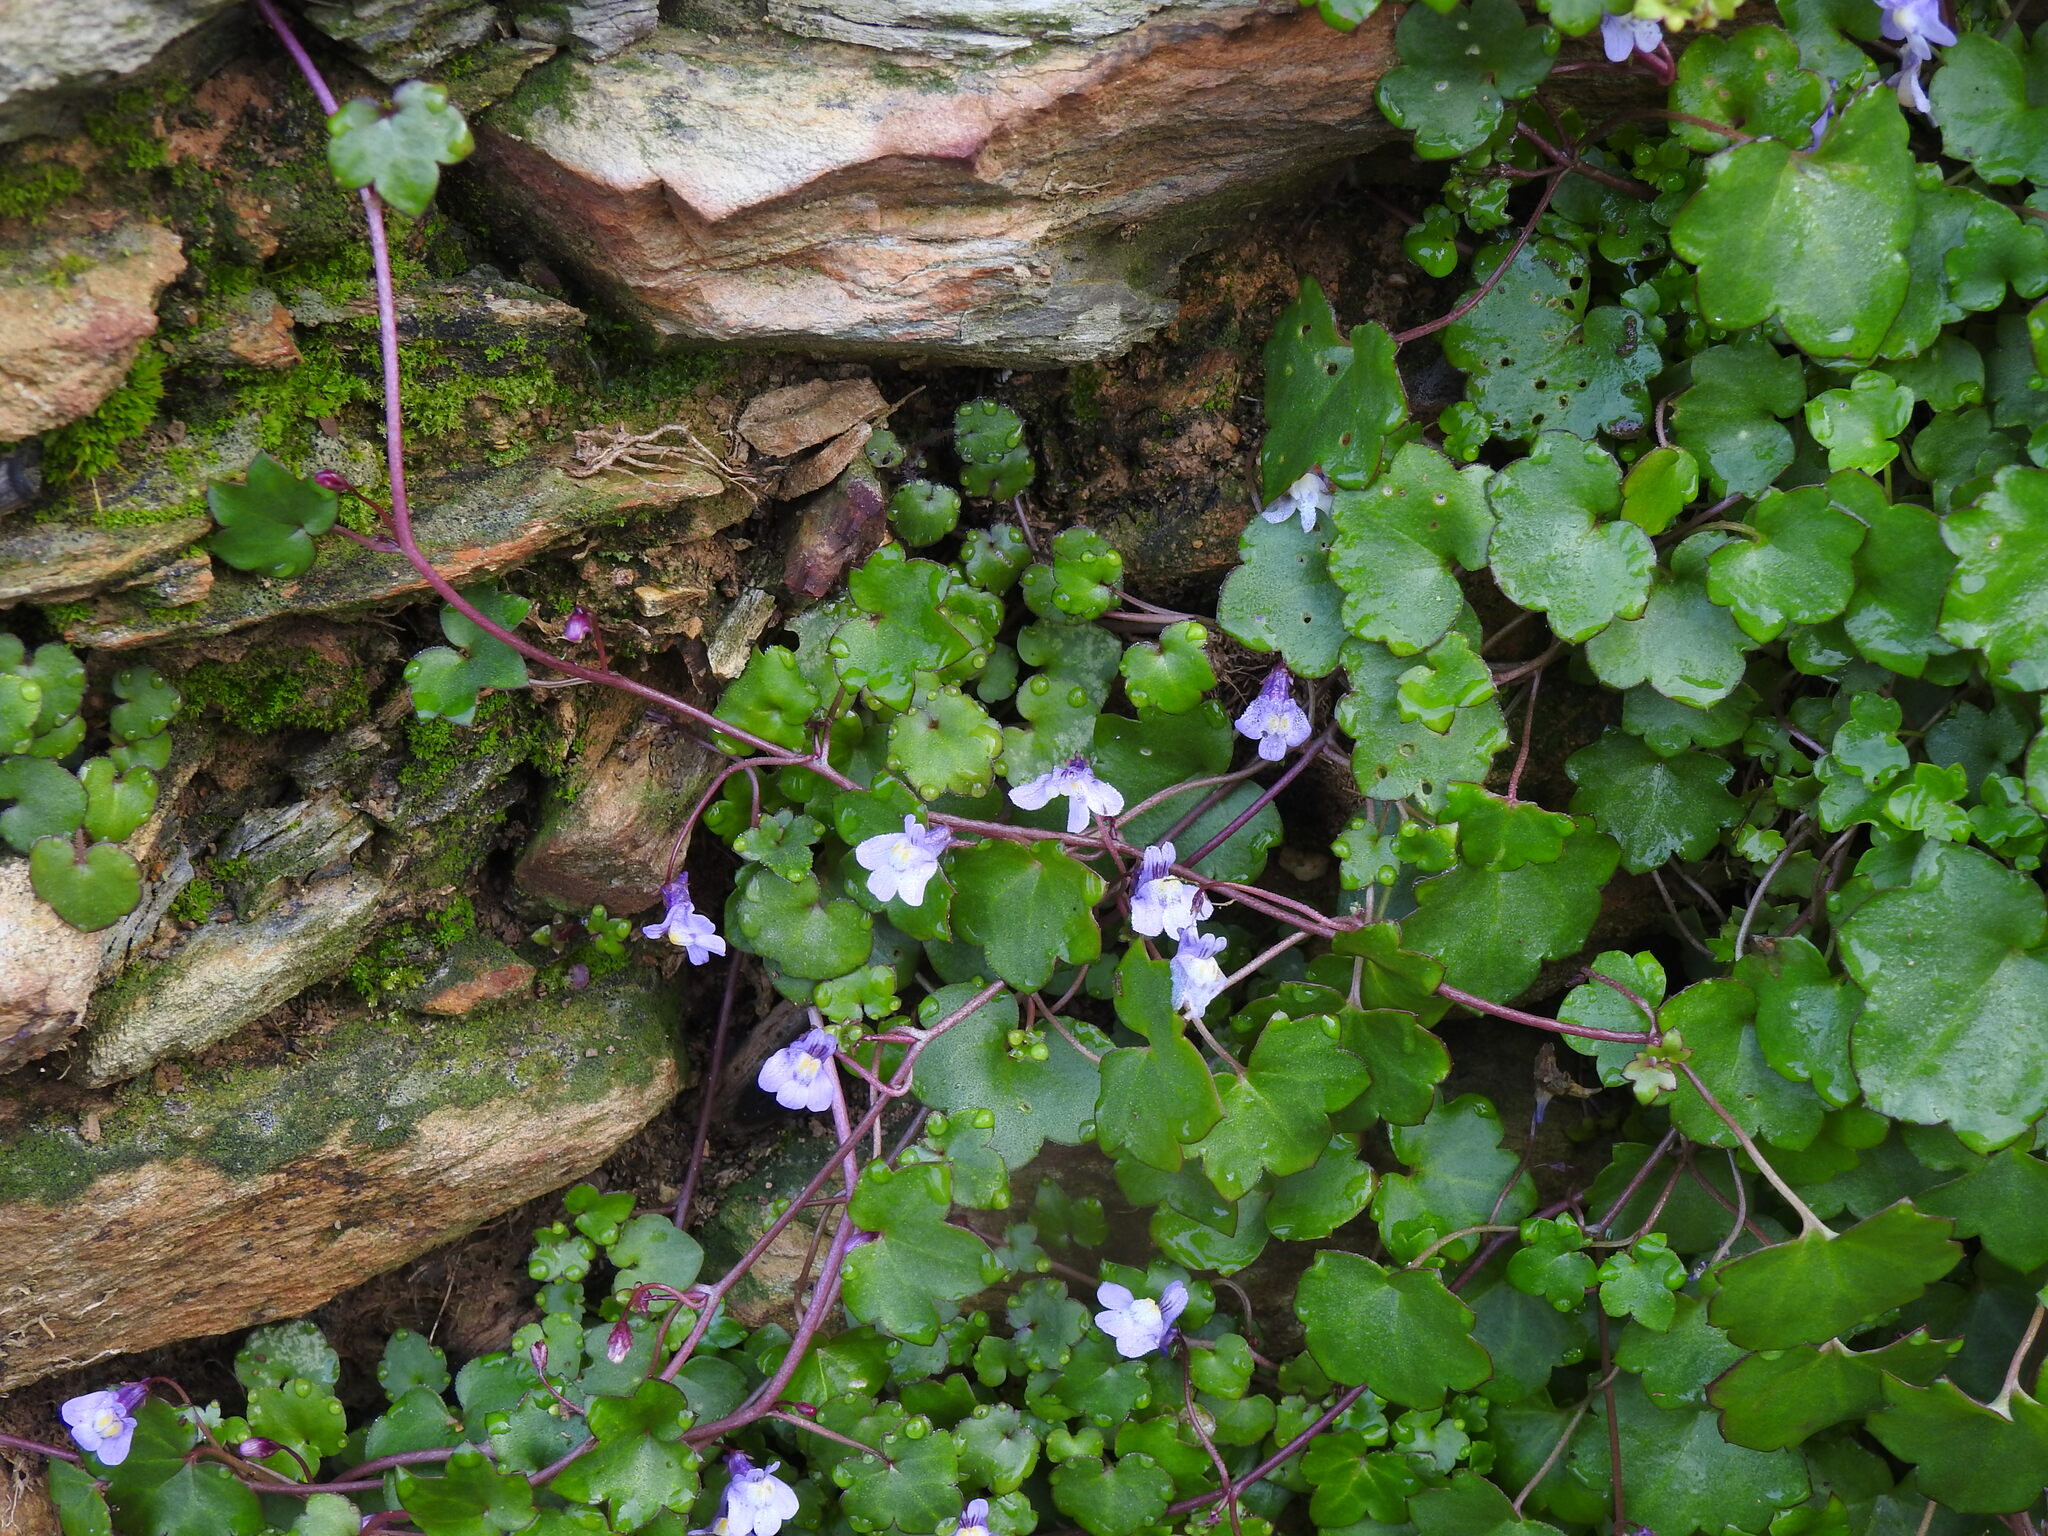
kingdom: Plantae
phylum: Tracheophyta
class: Magnoliopsida
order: Lamiales
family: Plantaginaceae
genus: Cymbalaria
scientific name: Cymbalaria muralis
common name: Ivy-leaved toadflax
